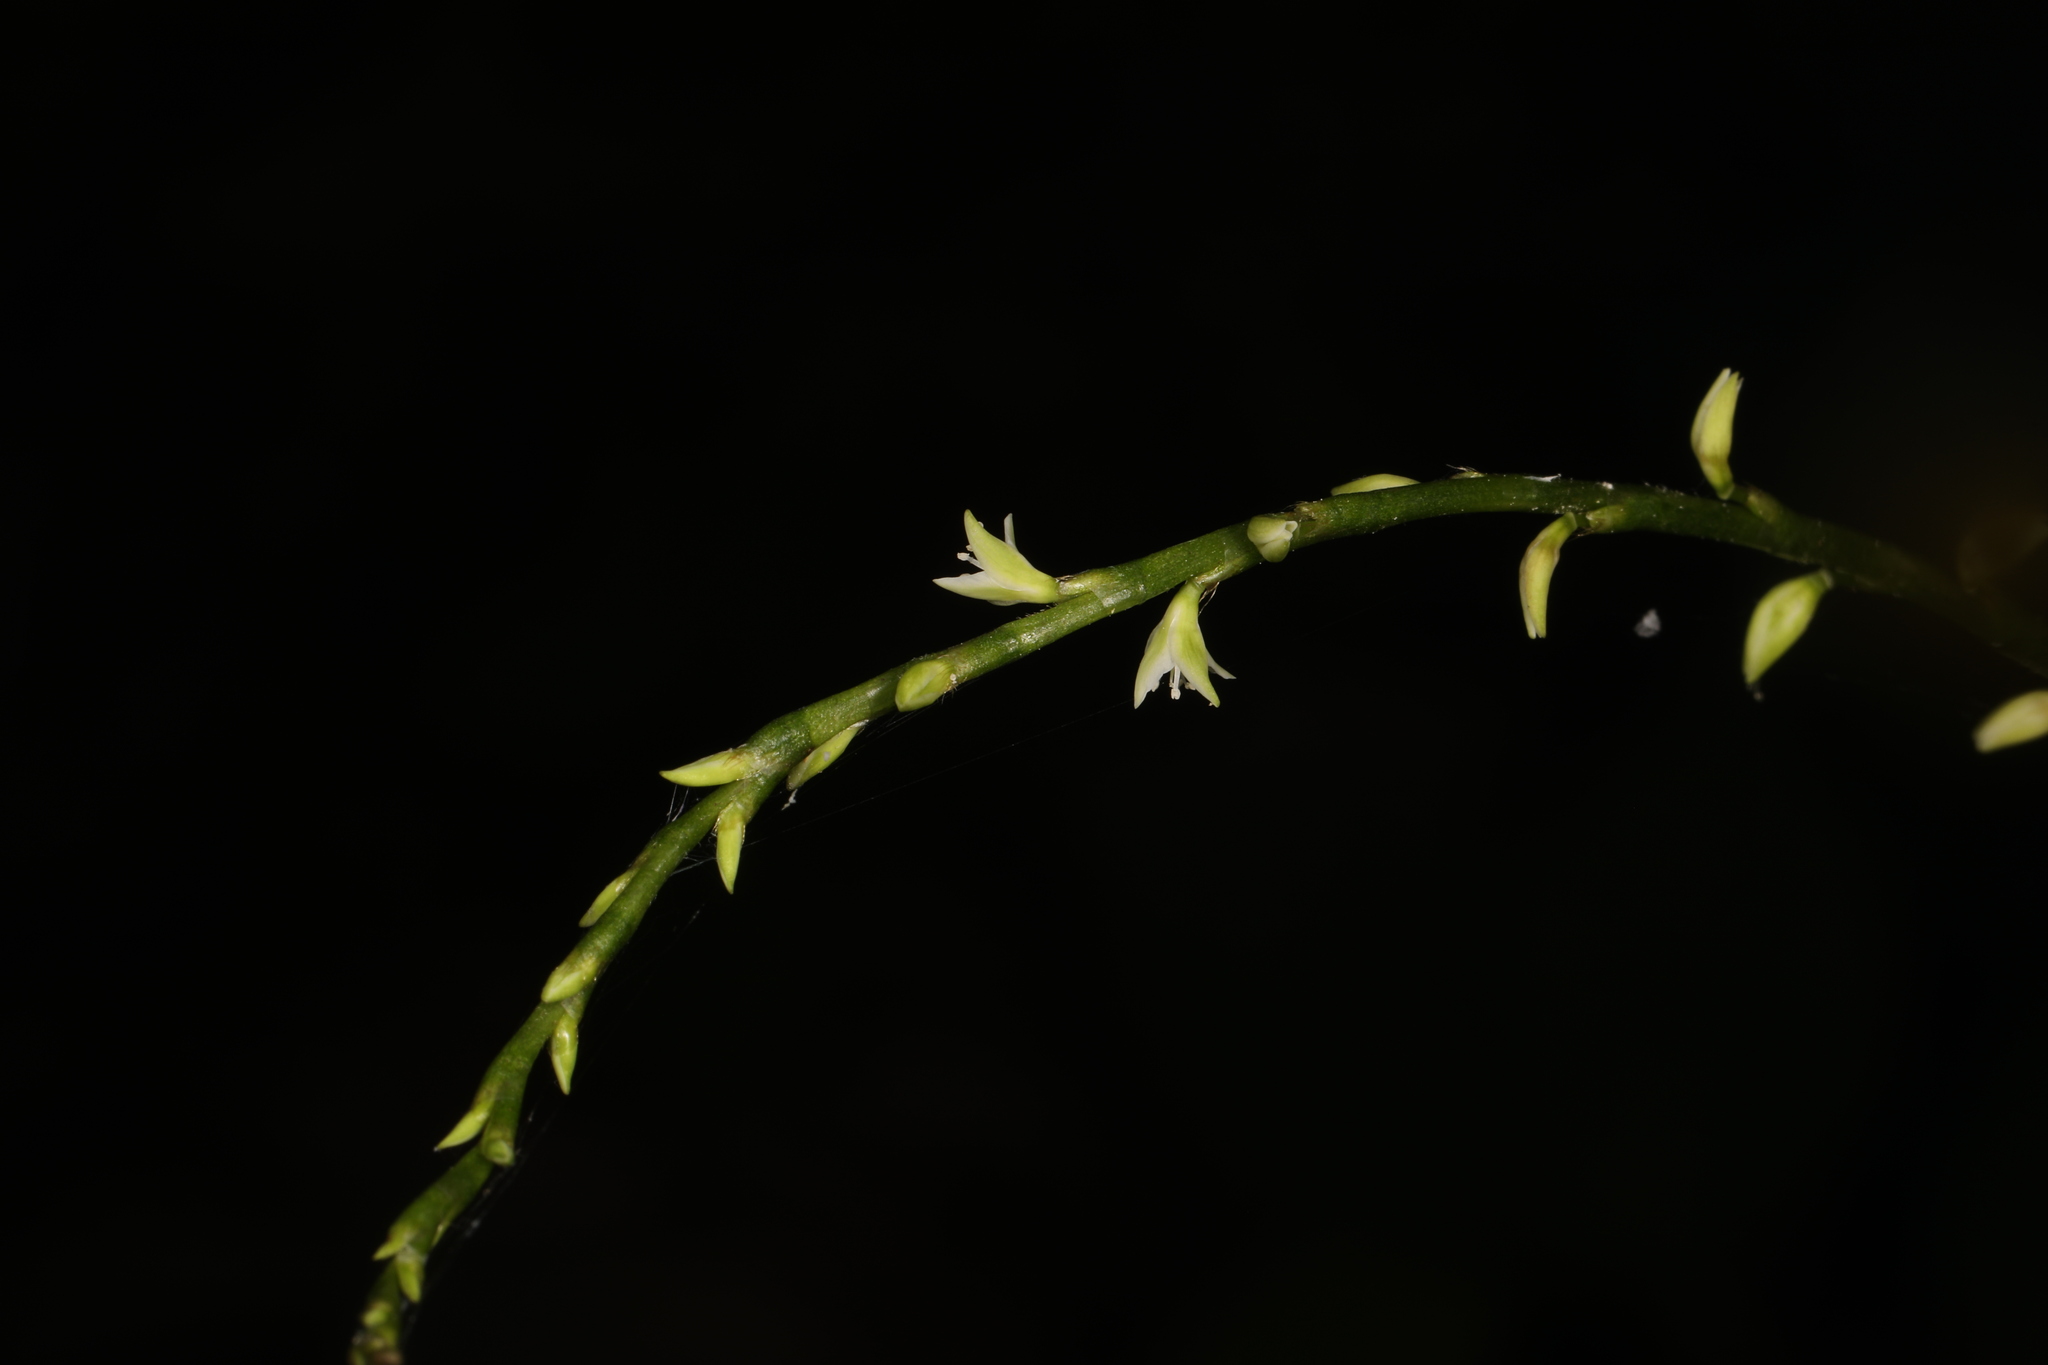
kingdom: Plantae
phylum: Tracheophyta
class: Magnoliopsida
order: Caryophyllales
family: Polygonaceae
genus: Persicaria
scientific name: Persicaria virginiana
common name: Jumpseed
